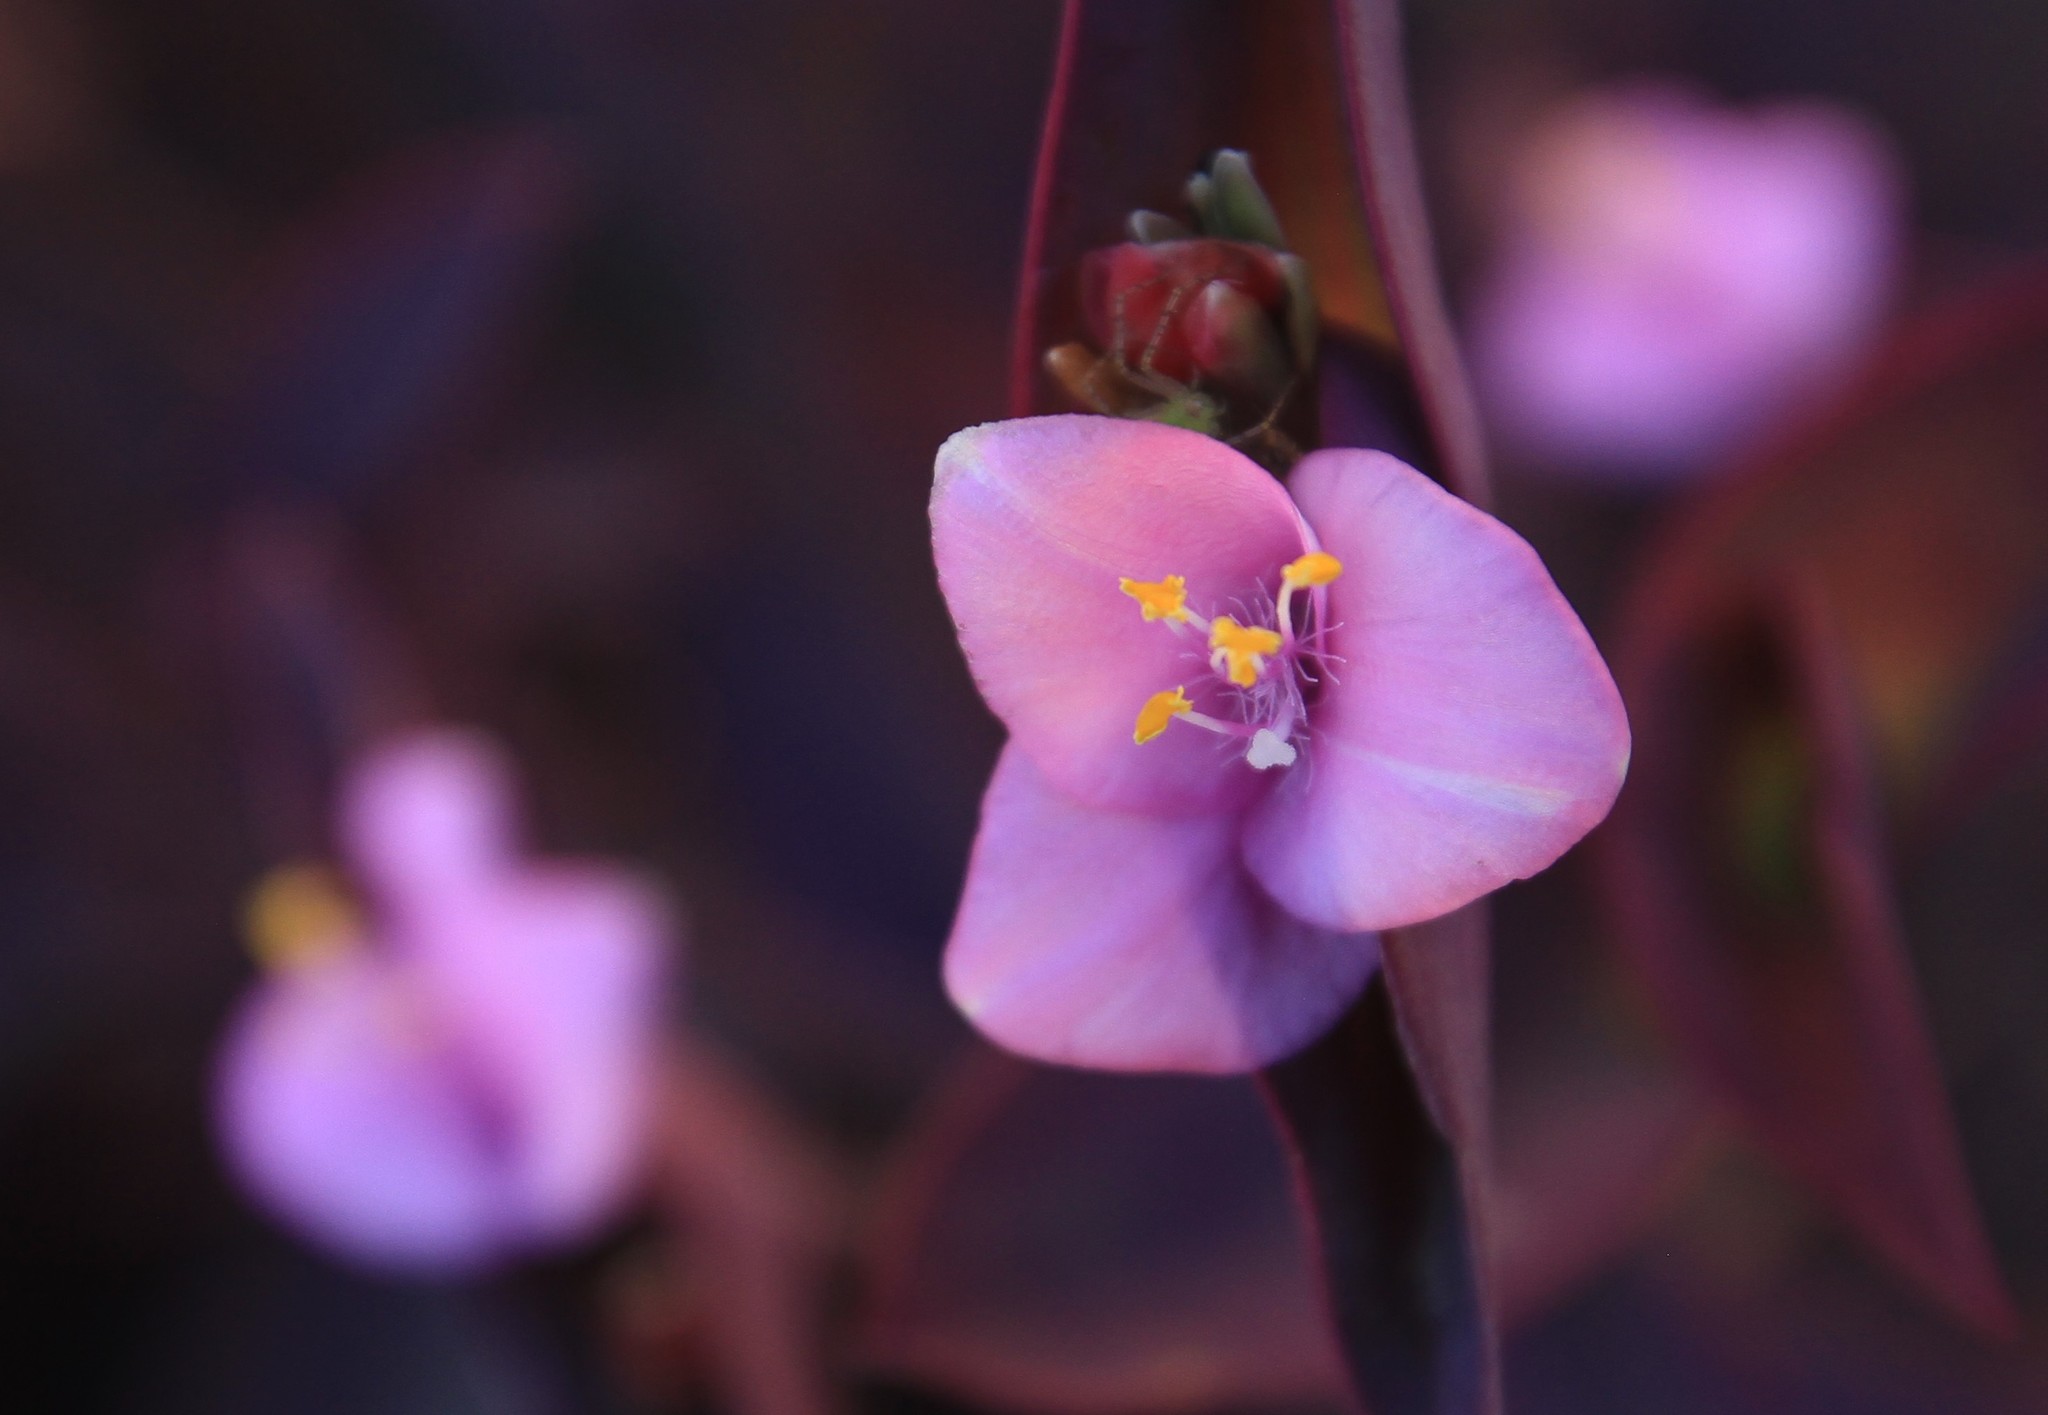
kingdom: Plantae
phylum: Tracheophyta
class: Liliopsida
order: Commelinales
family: Commelinaceae
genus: Tradescantia
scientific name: Tradescantia pallida
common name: Purpleheart
